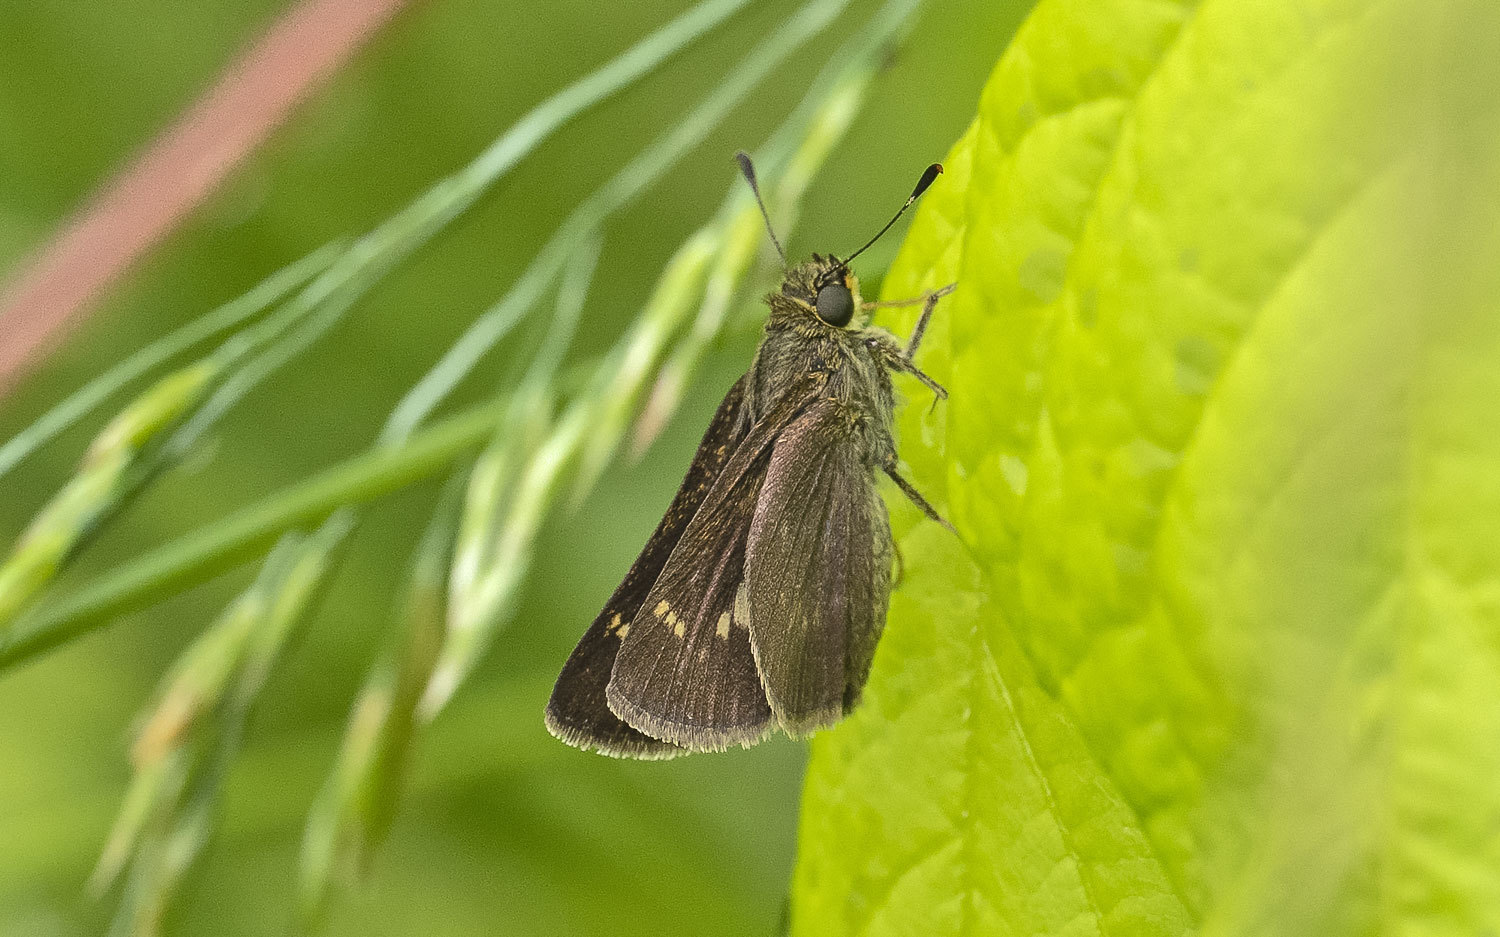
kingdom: Animalia
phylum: Arthropoda
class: Insecta
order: Lepidoptera
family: Hesperiidae
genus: Vernia
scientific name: Vernia verna
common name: Little glassywing
